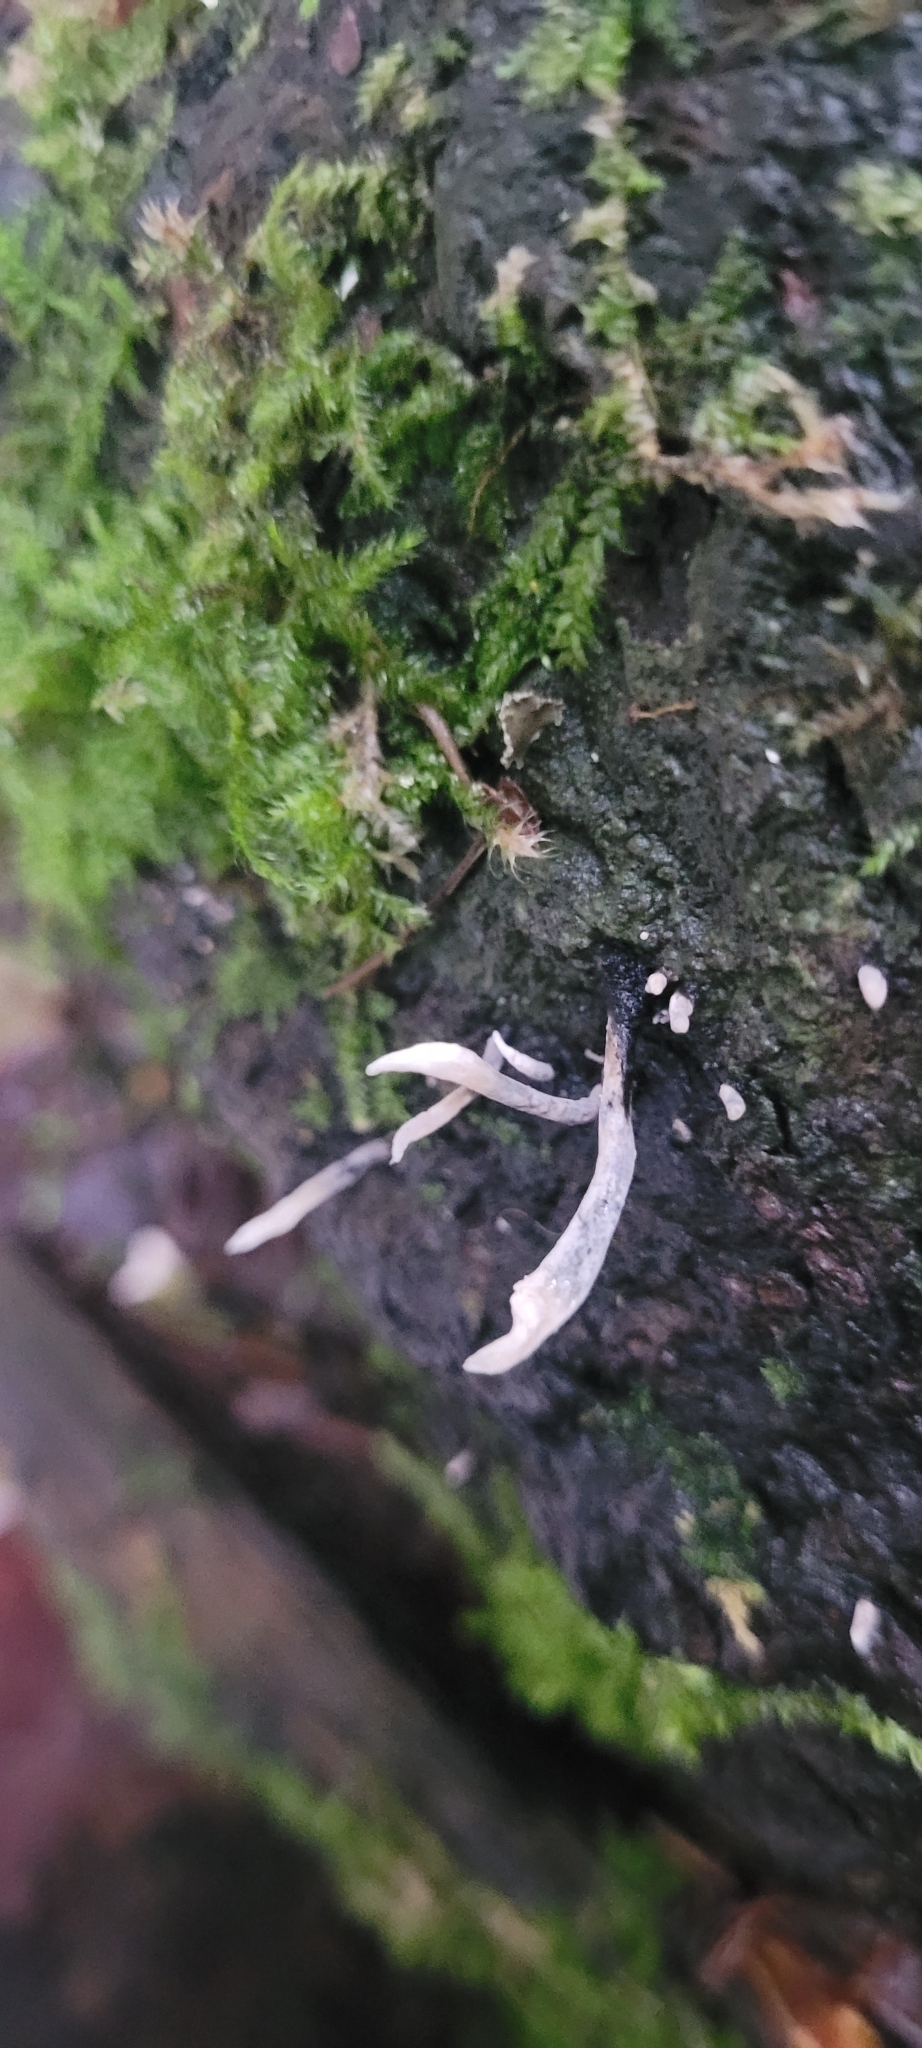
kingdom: Fungi
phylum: Ascomycota
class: Sordariomycetes
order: Xylariales
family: Xylariaceae
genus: Xylaria
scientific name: Xylaria hypoxylon
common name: Candle-snuff fungus
